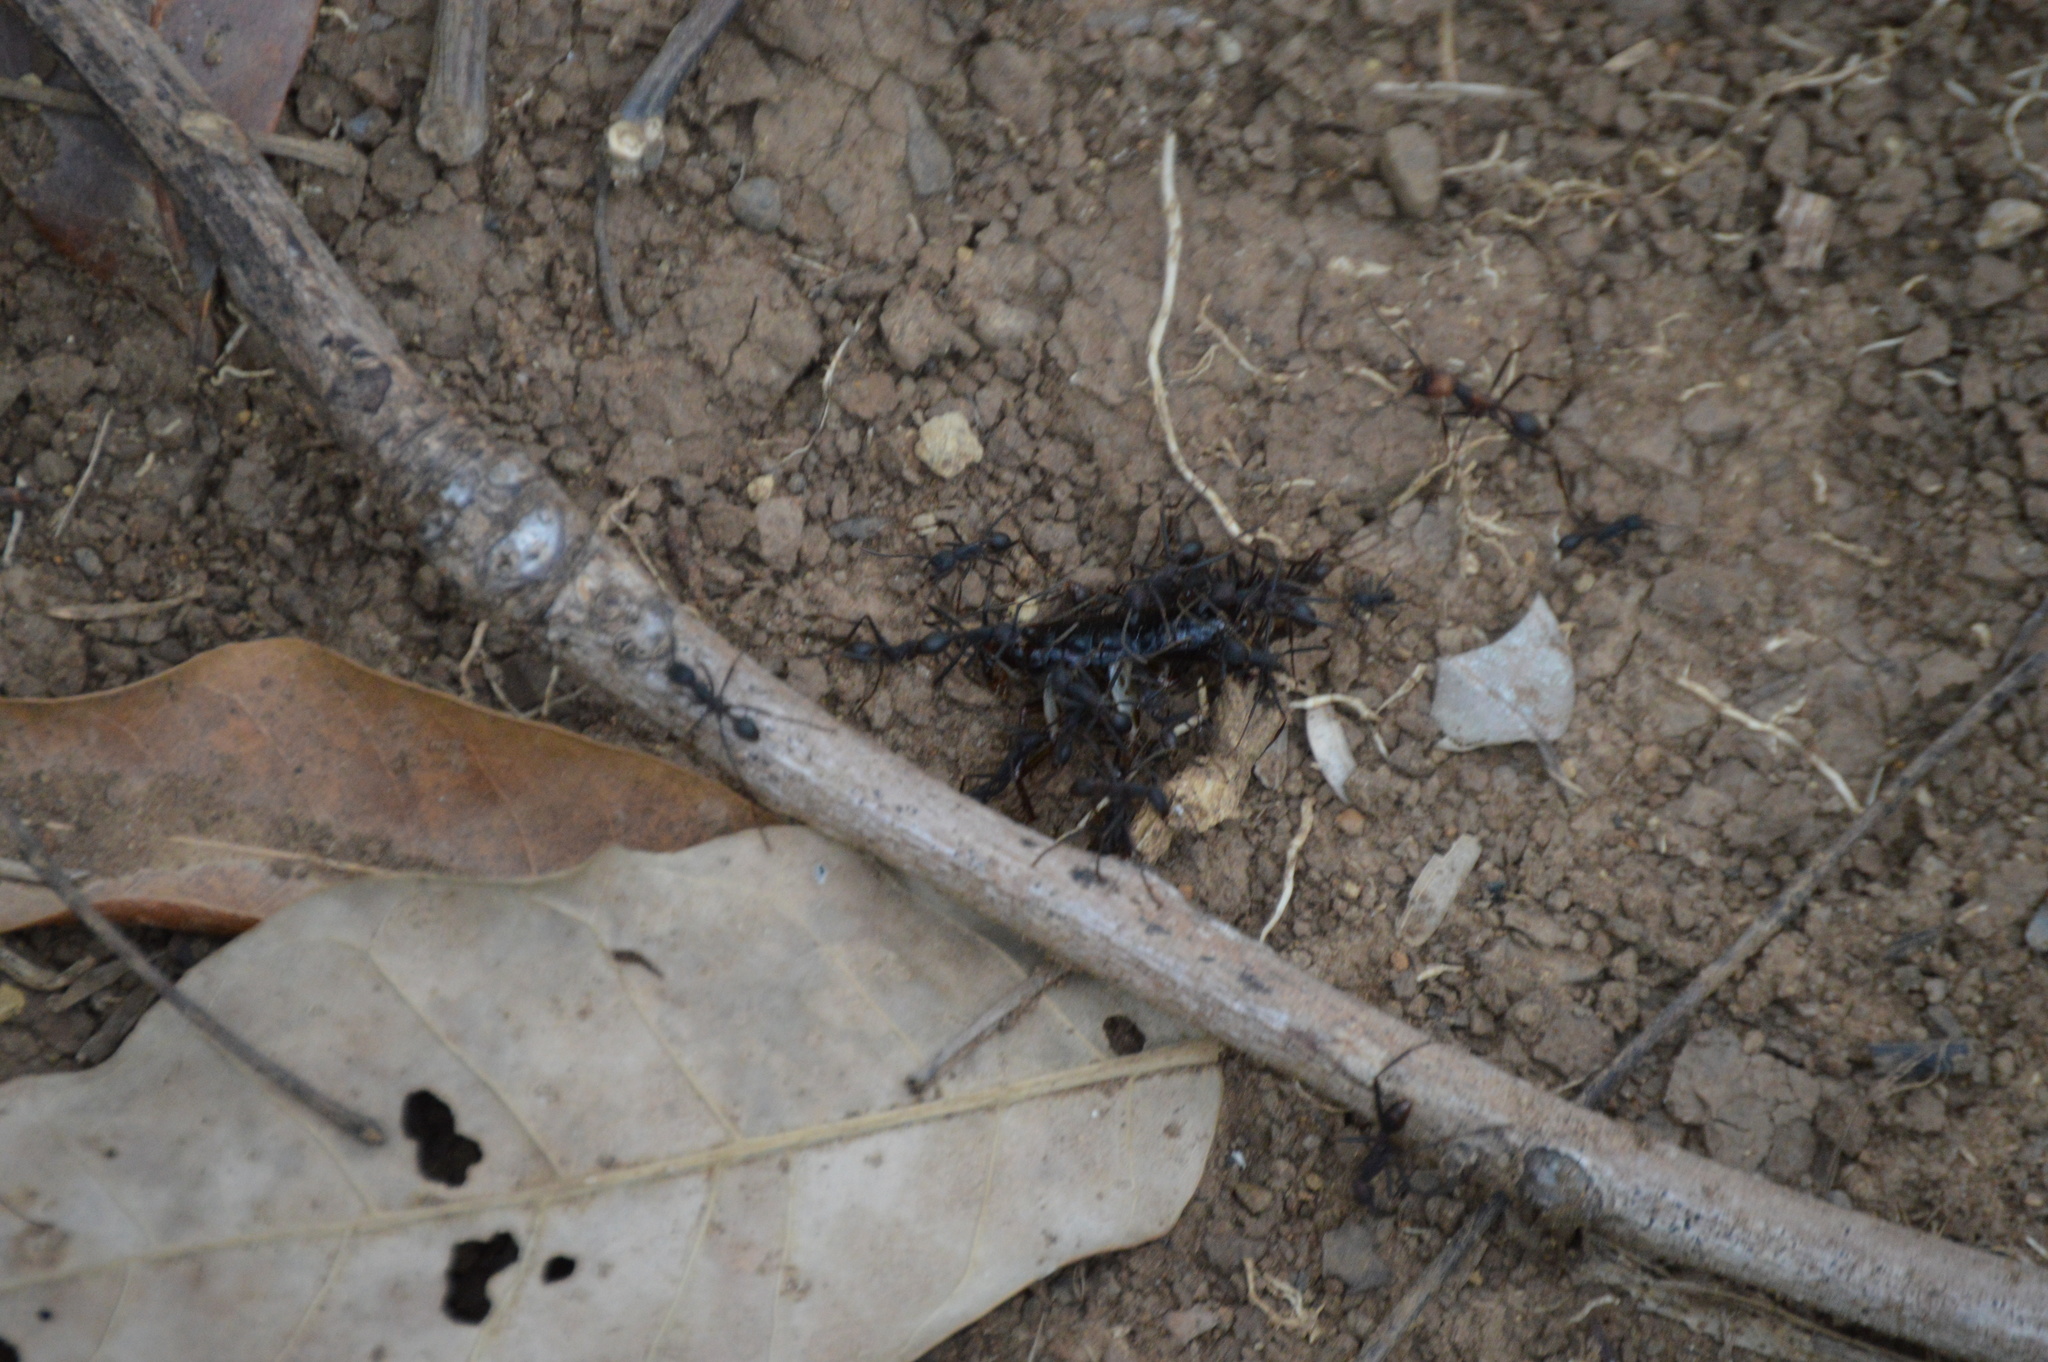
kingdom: Animalia
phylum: Arthropoda
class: Insecta
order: Hymenoptera
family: Formicidae
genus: Eciton
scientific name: Eciton burchellii
